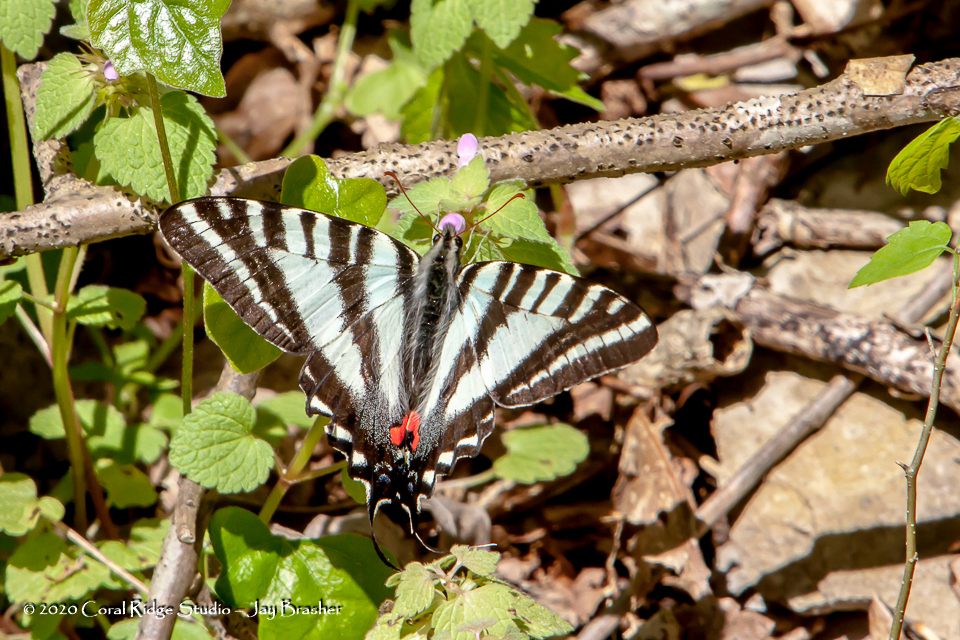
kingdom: Animalia
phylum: Arthropoda
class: Insecta
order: Lepidoptera
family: Papilionidae
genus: Protographium
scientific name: Protographium marcellus
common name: Zebra swallowtail
